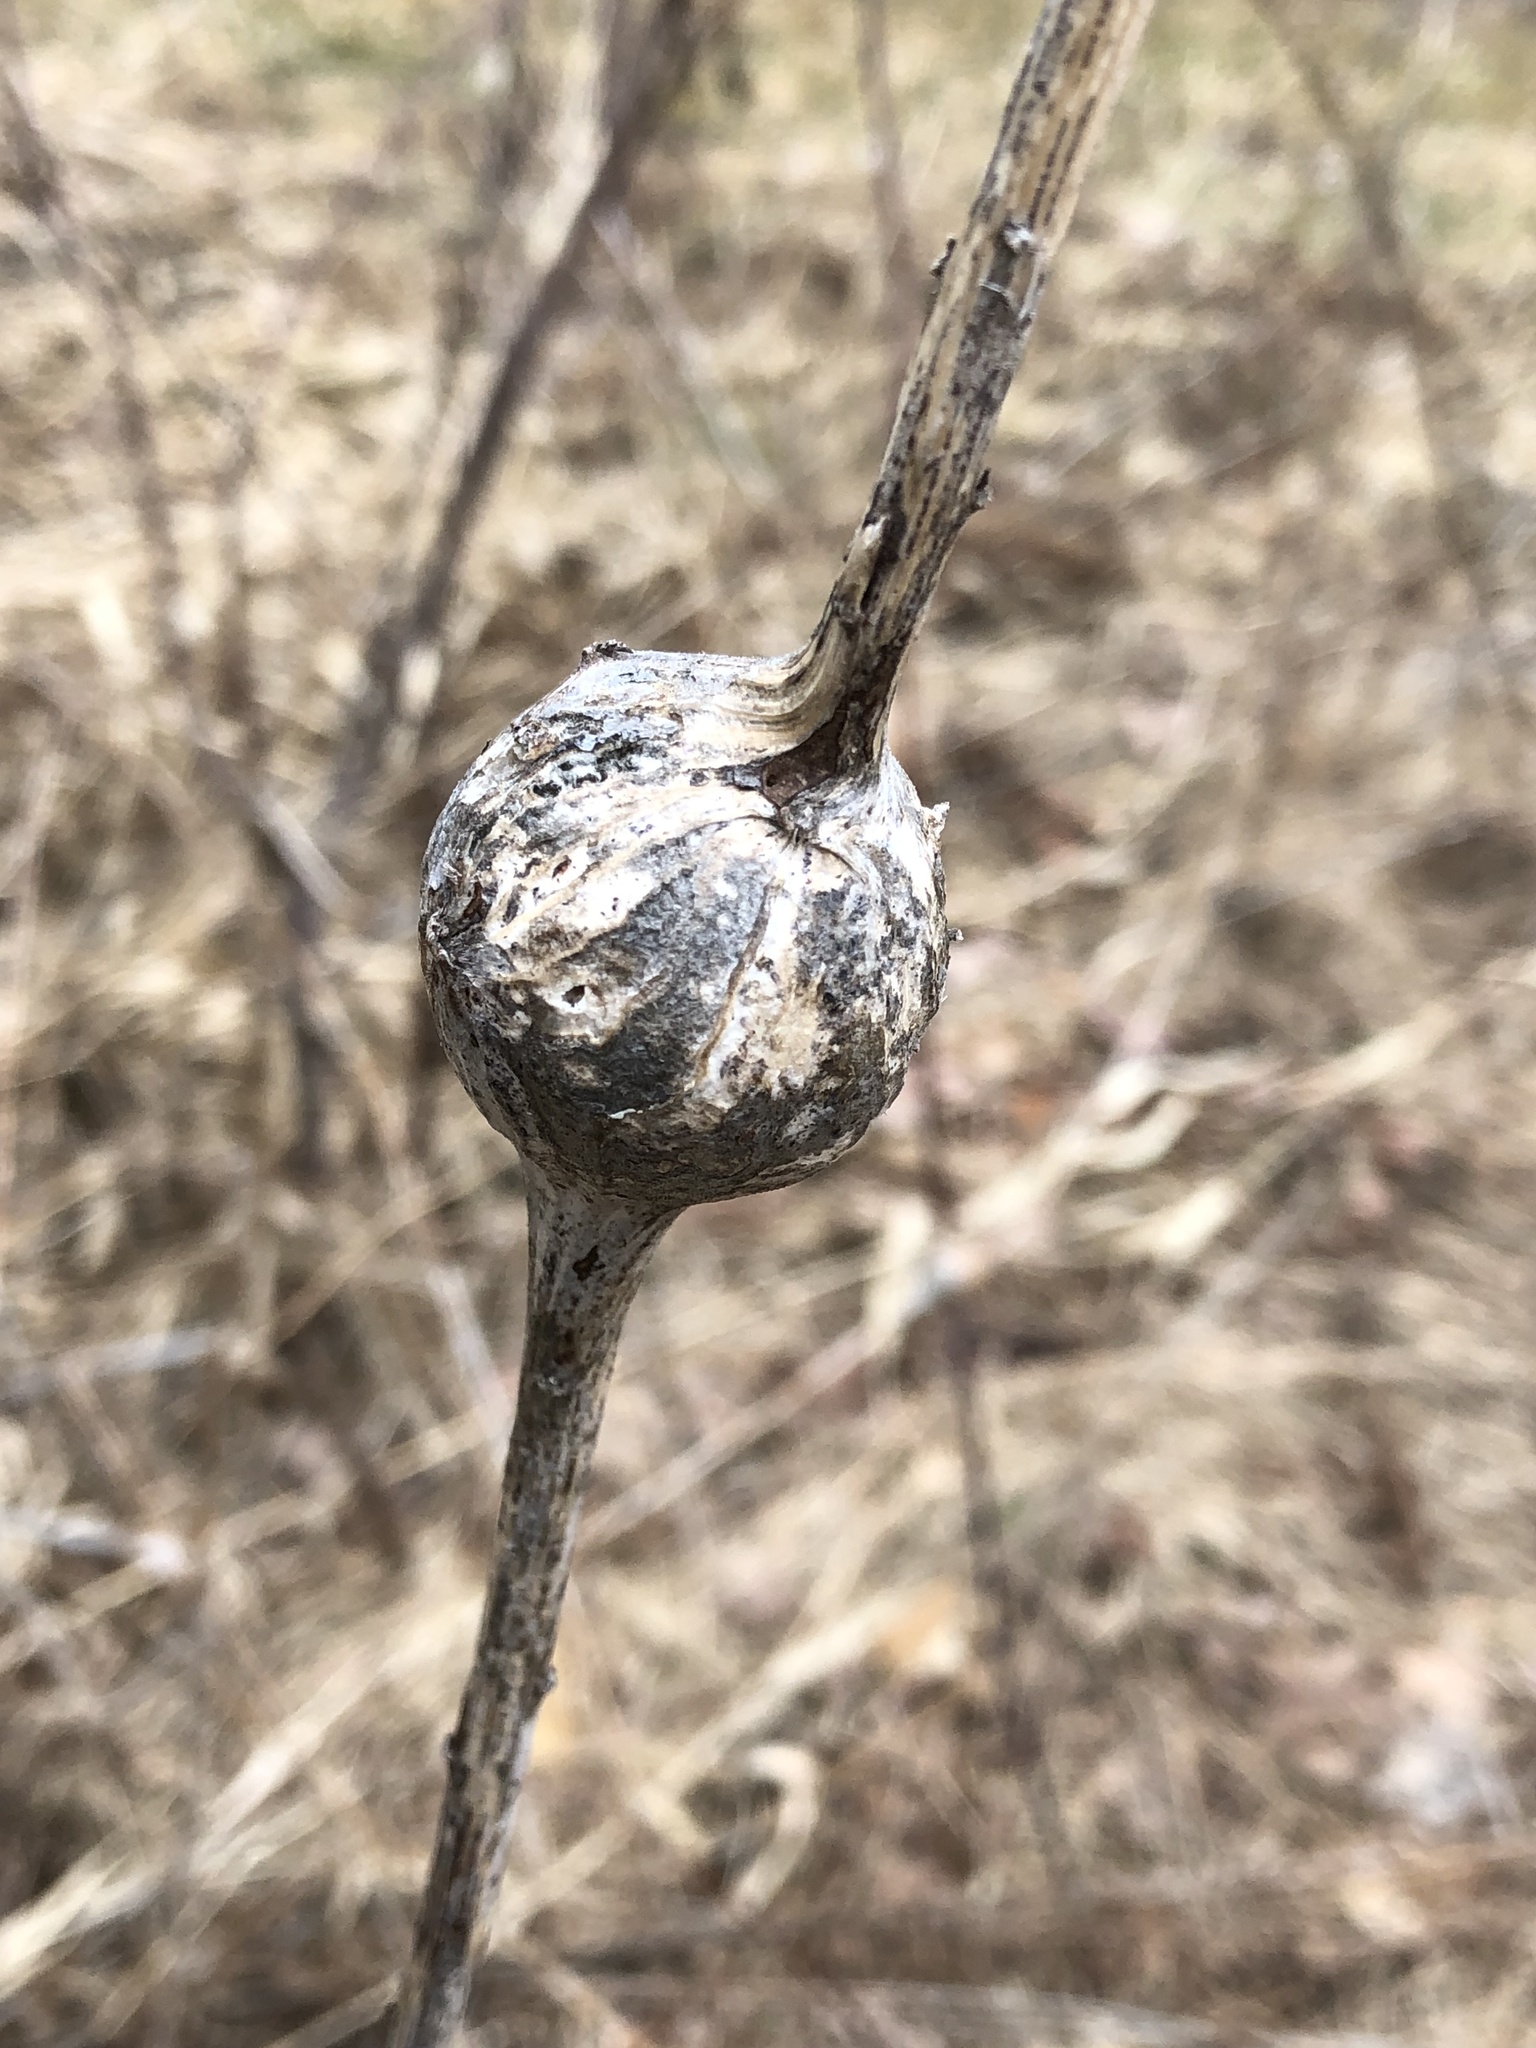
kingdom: Animalia
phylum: Arthropoda
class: Insecta
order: Diptera
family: Tephritidae
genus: Eurosta
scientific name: Eurosta solidaginis
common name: Goldenrod gall fly
